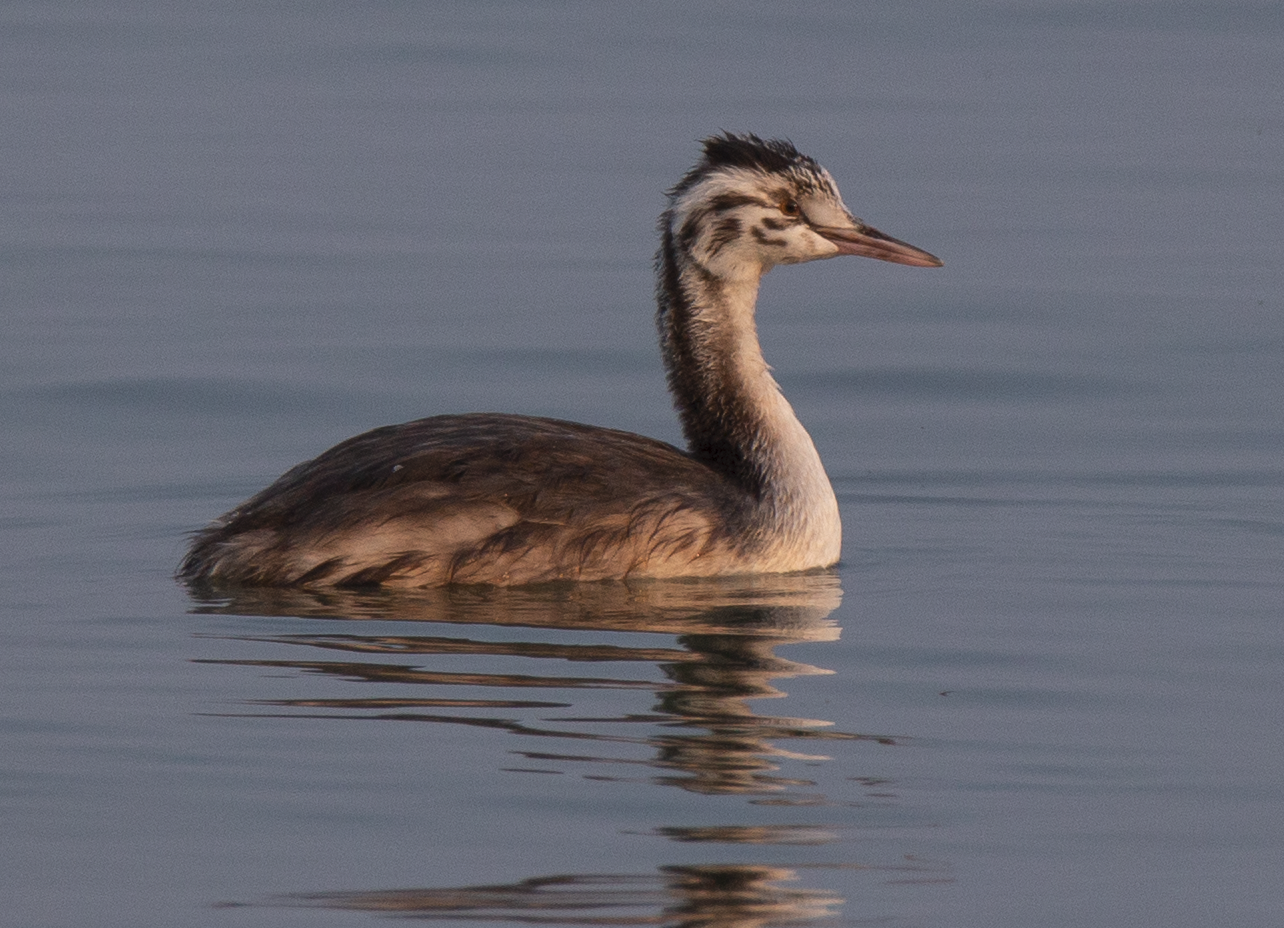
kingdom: Animalia
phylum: Chordata
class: Aves
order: Podicipediformes
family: Podicipedidae
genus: Podiceps
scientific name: Podiceps cristatus
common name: Great crested grebe
